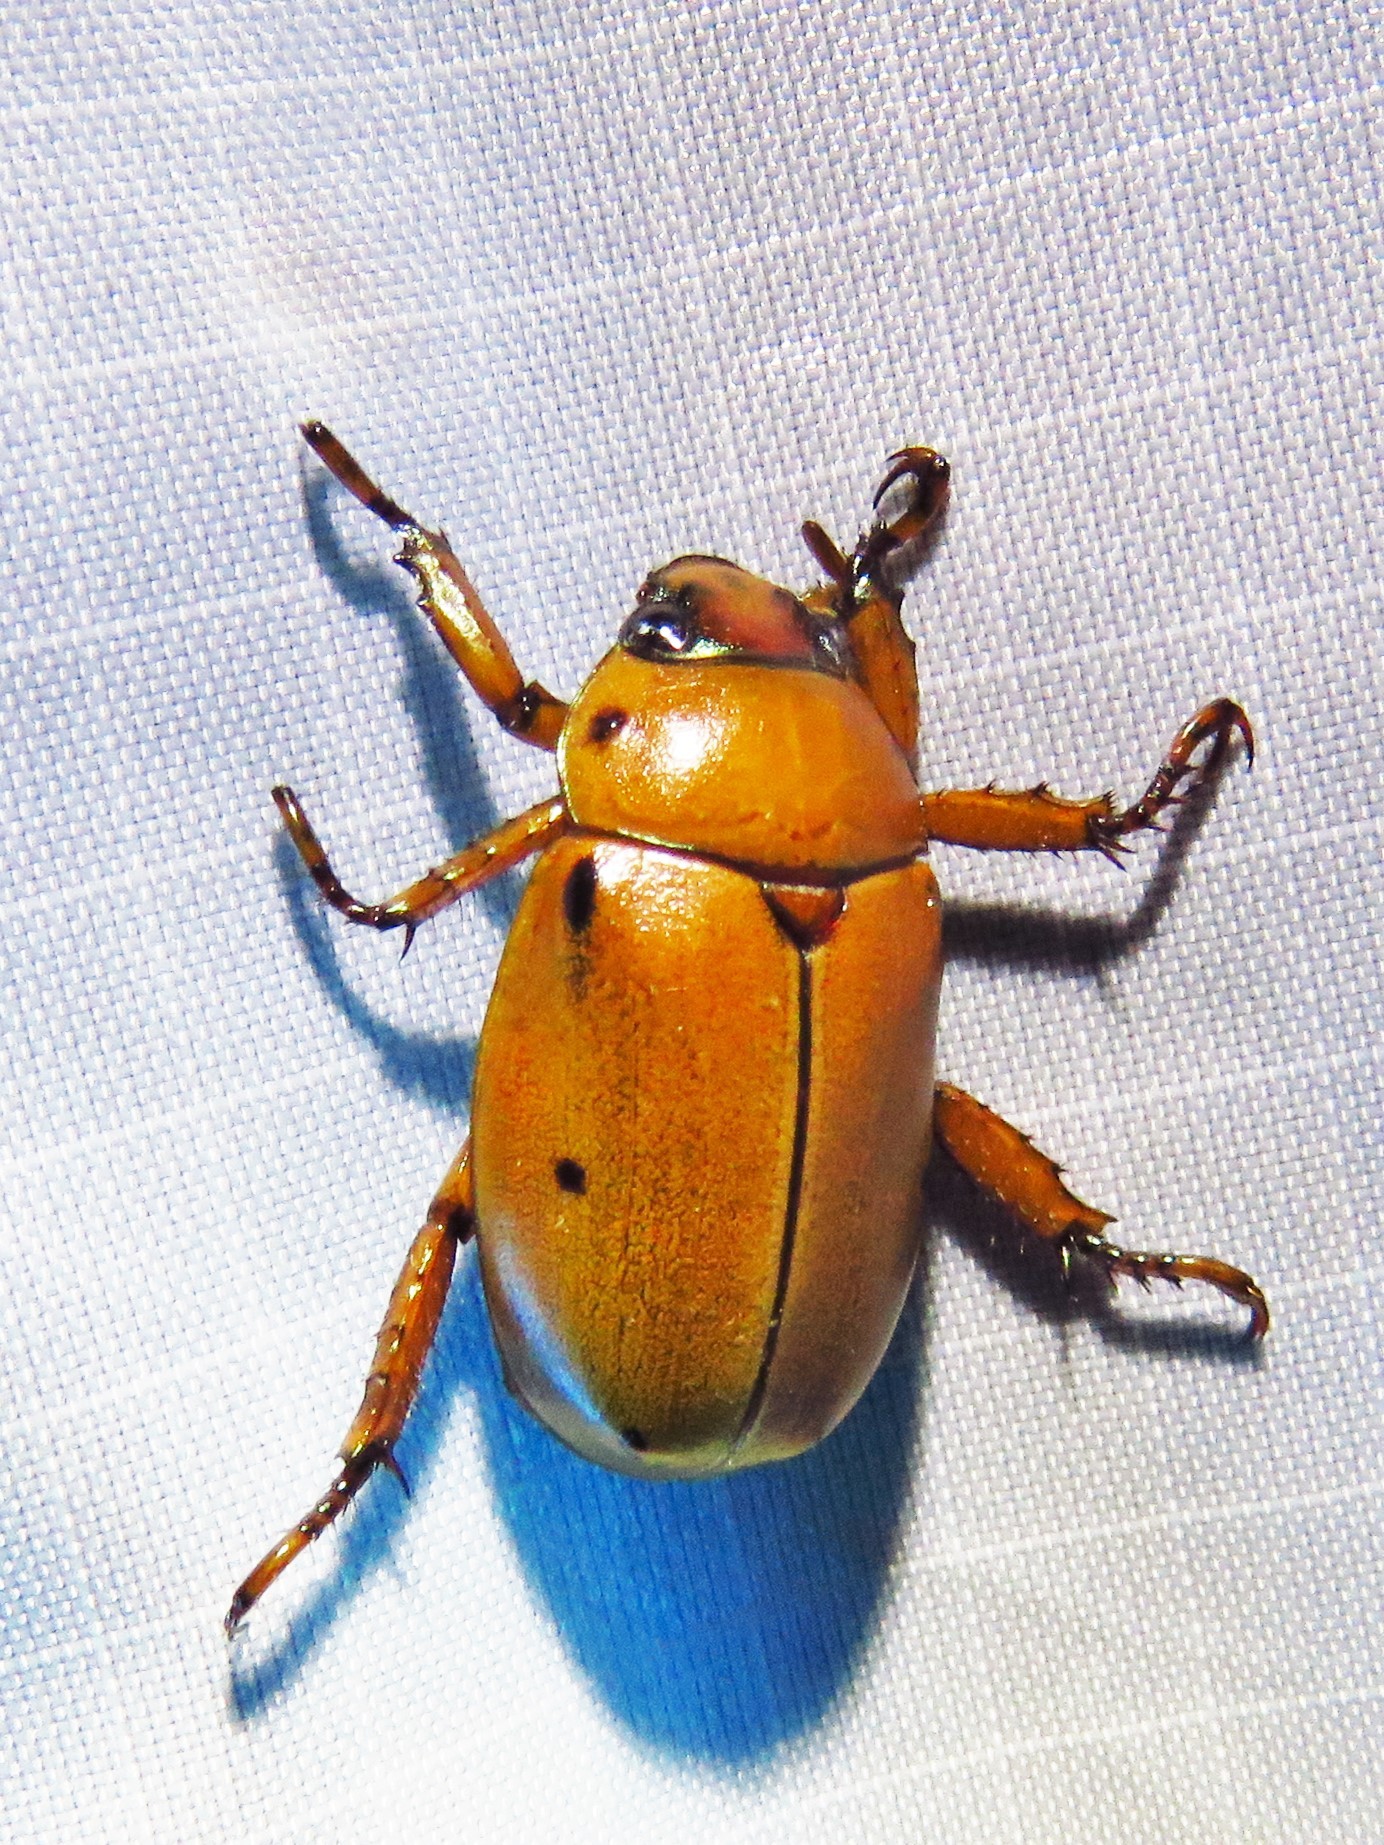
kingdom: Animalia
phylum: Arthropoda
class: Insecta
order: Coleoptera
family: Scarabaeidae
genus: Pelidnota
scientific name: Pelidnota punctata
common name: Grapevine beetle
